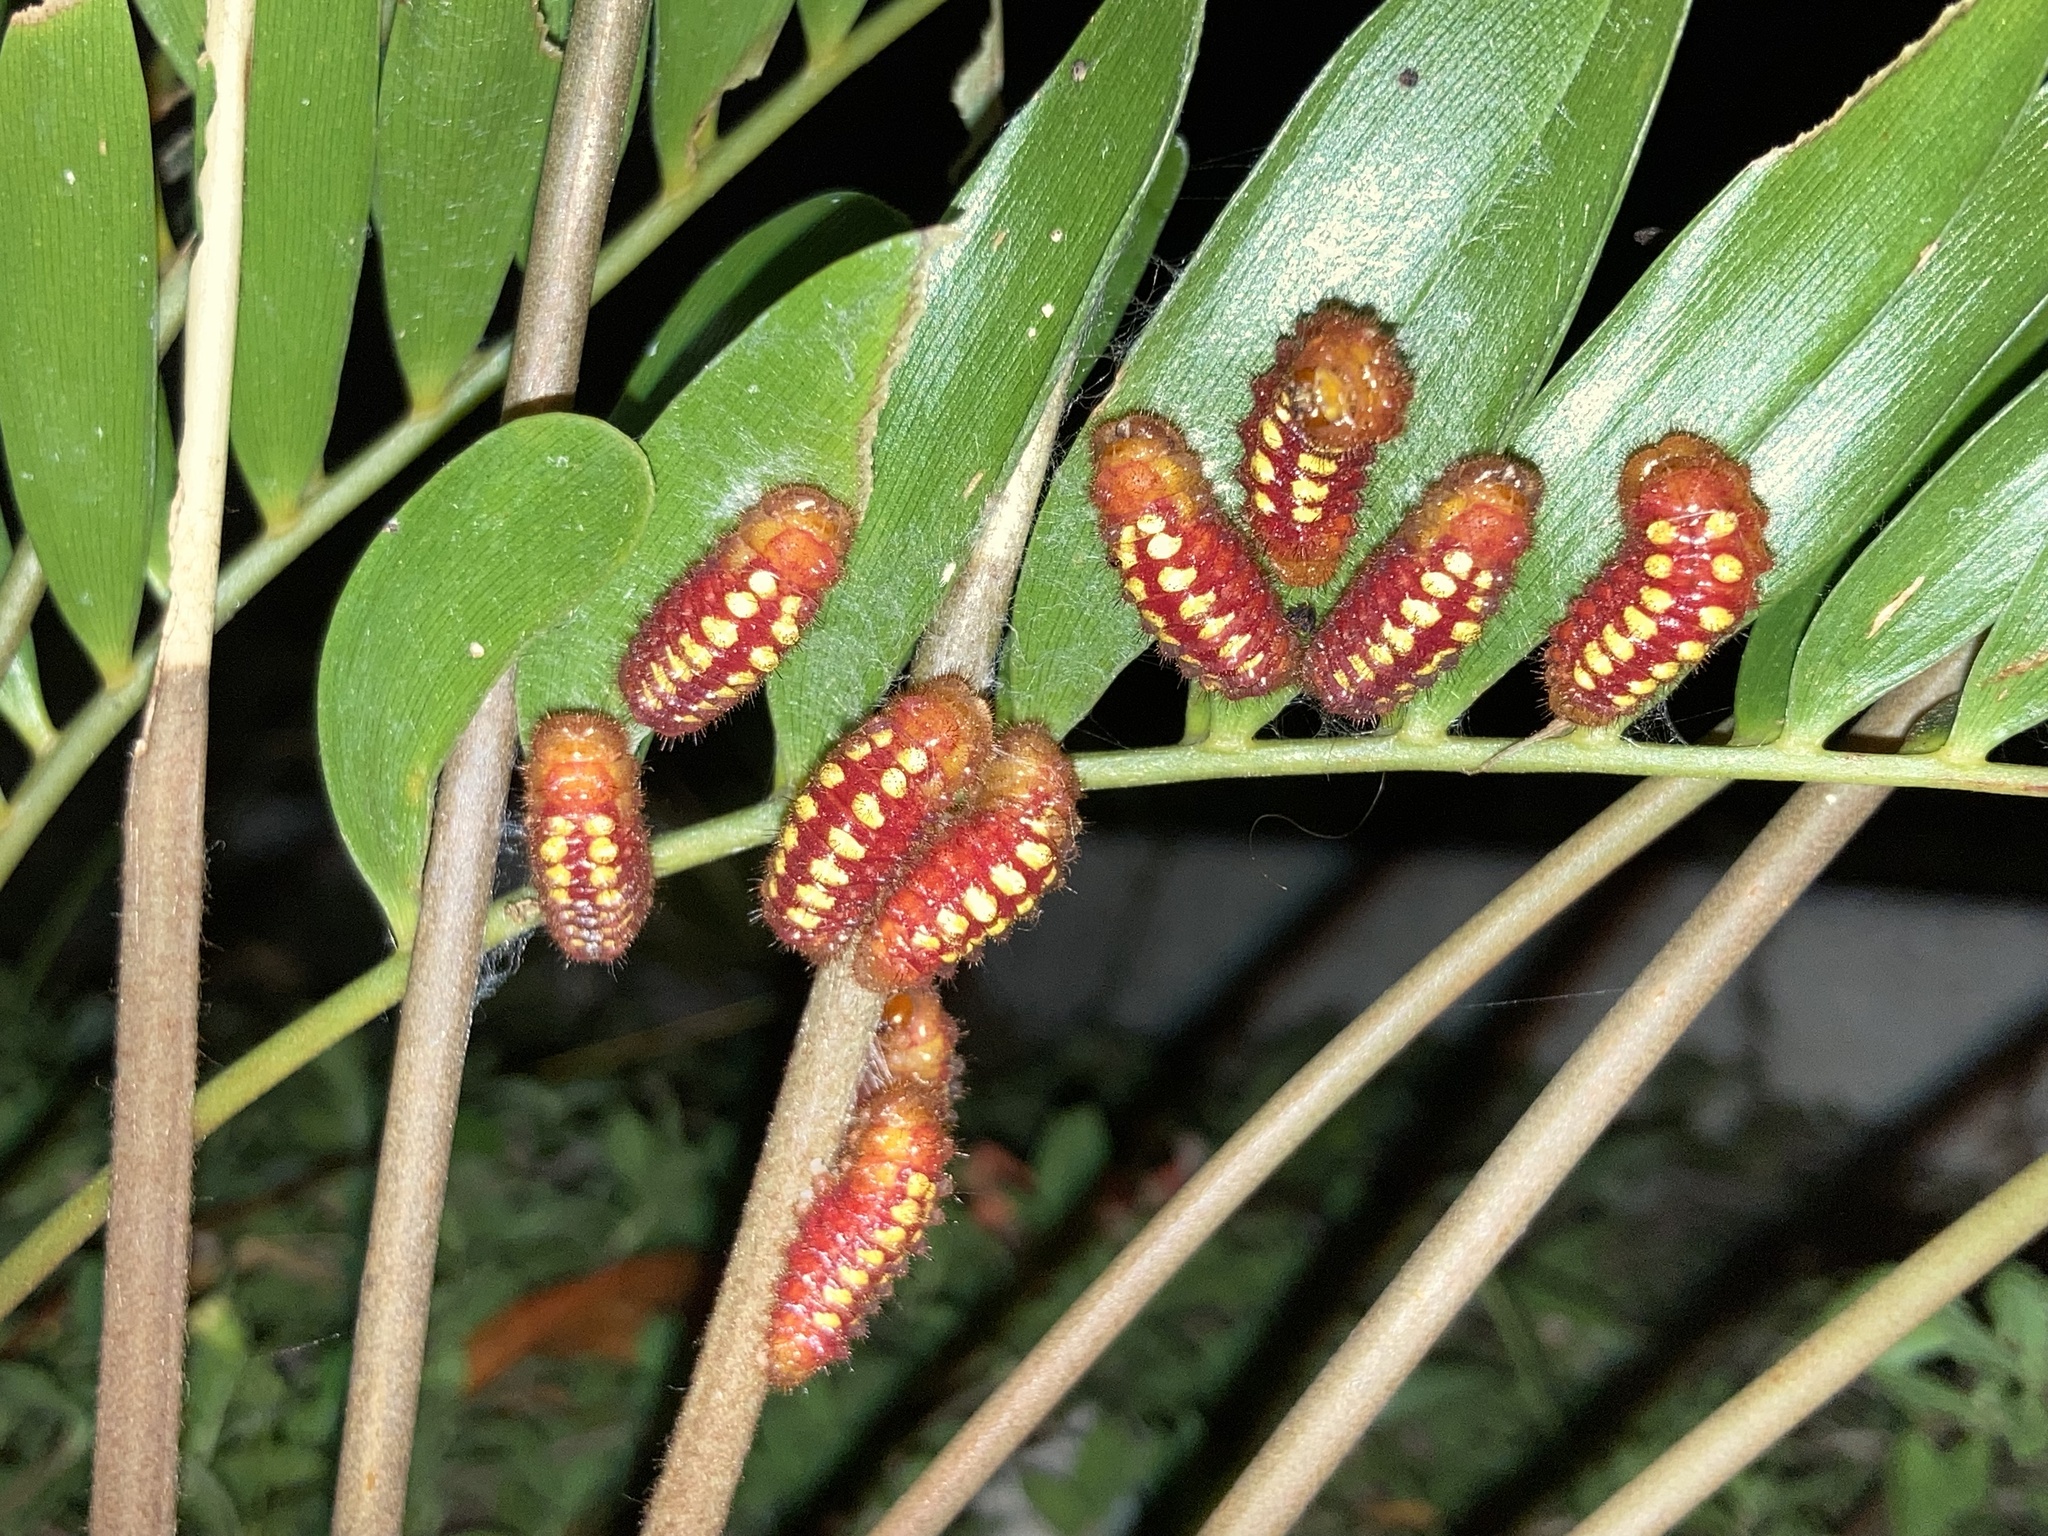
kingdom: Animalia
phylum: Arthropoda
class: Insecta
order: Lepidoptera
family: Lycaenidae
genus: Eumaeus
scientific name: Eumaeus atala
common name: Atala
